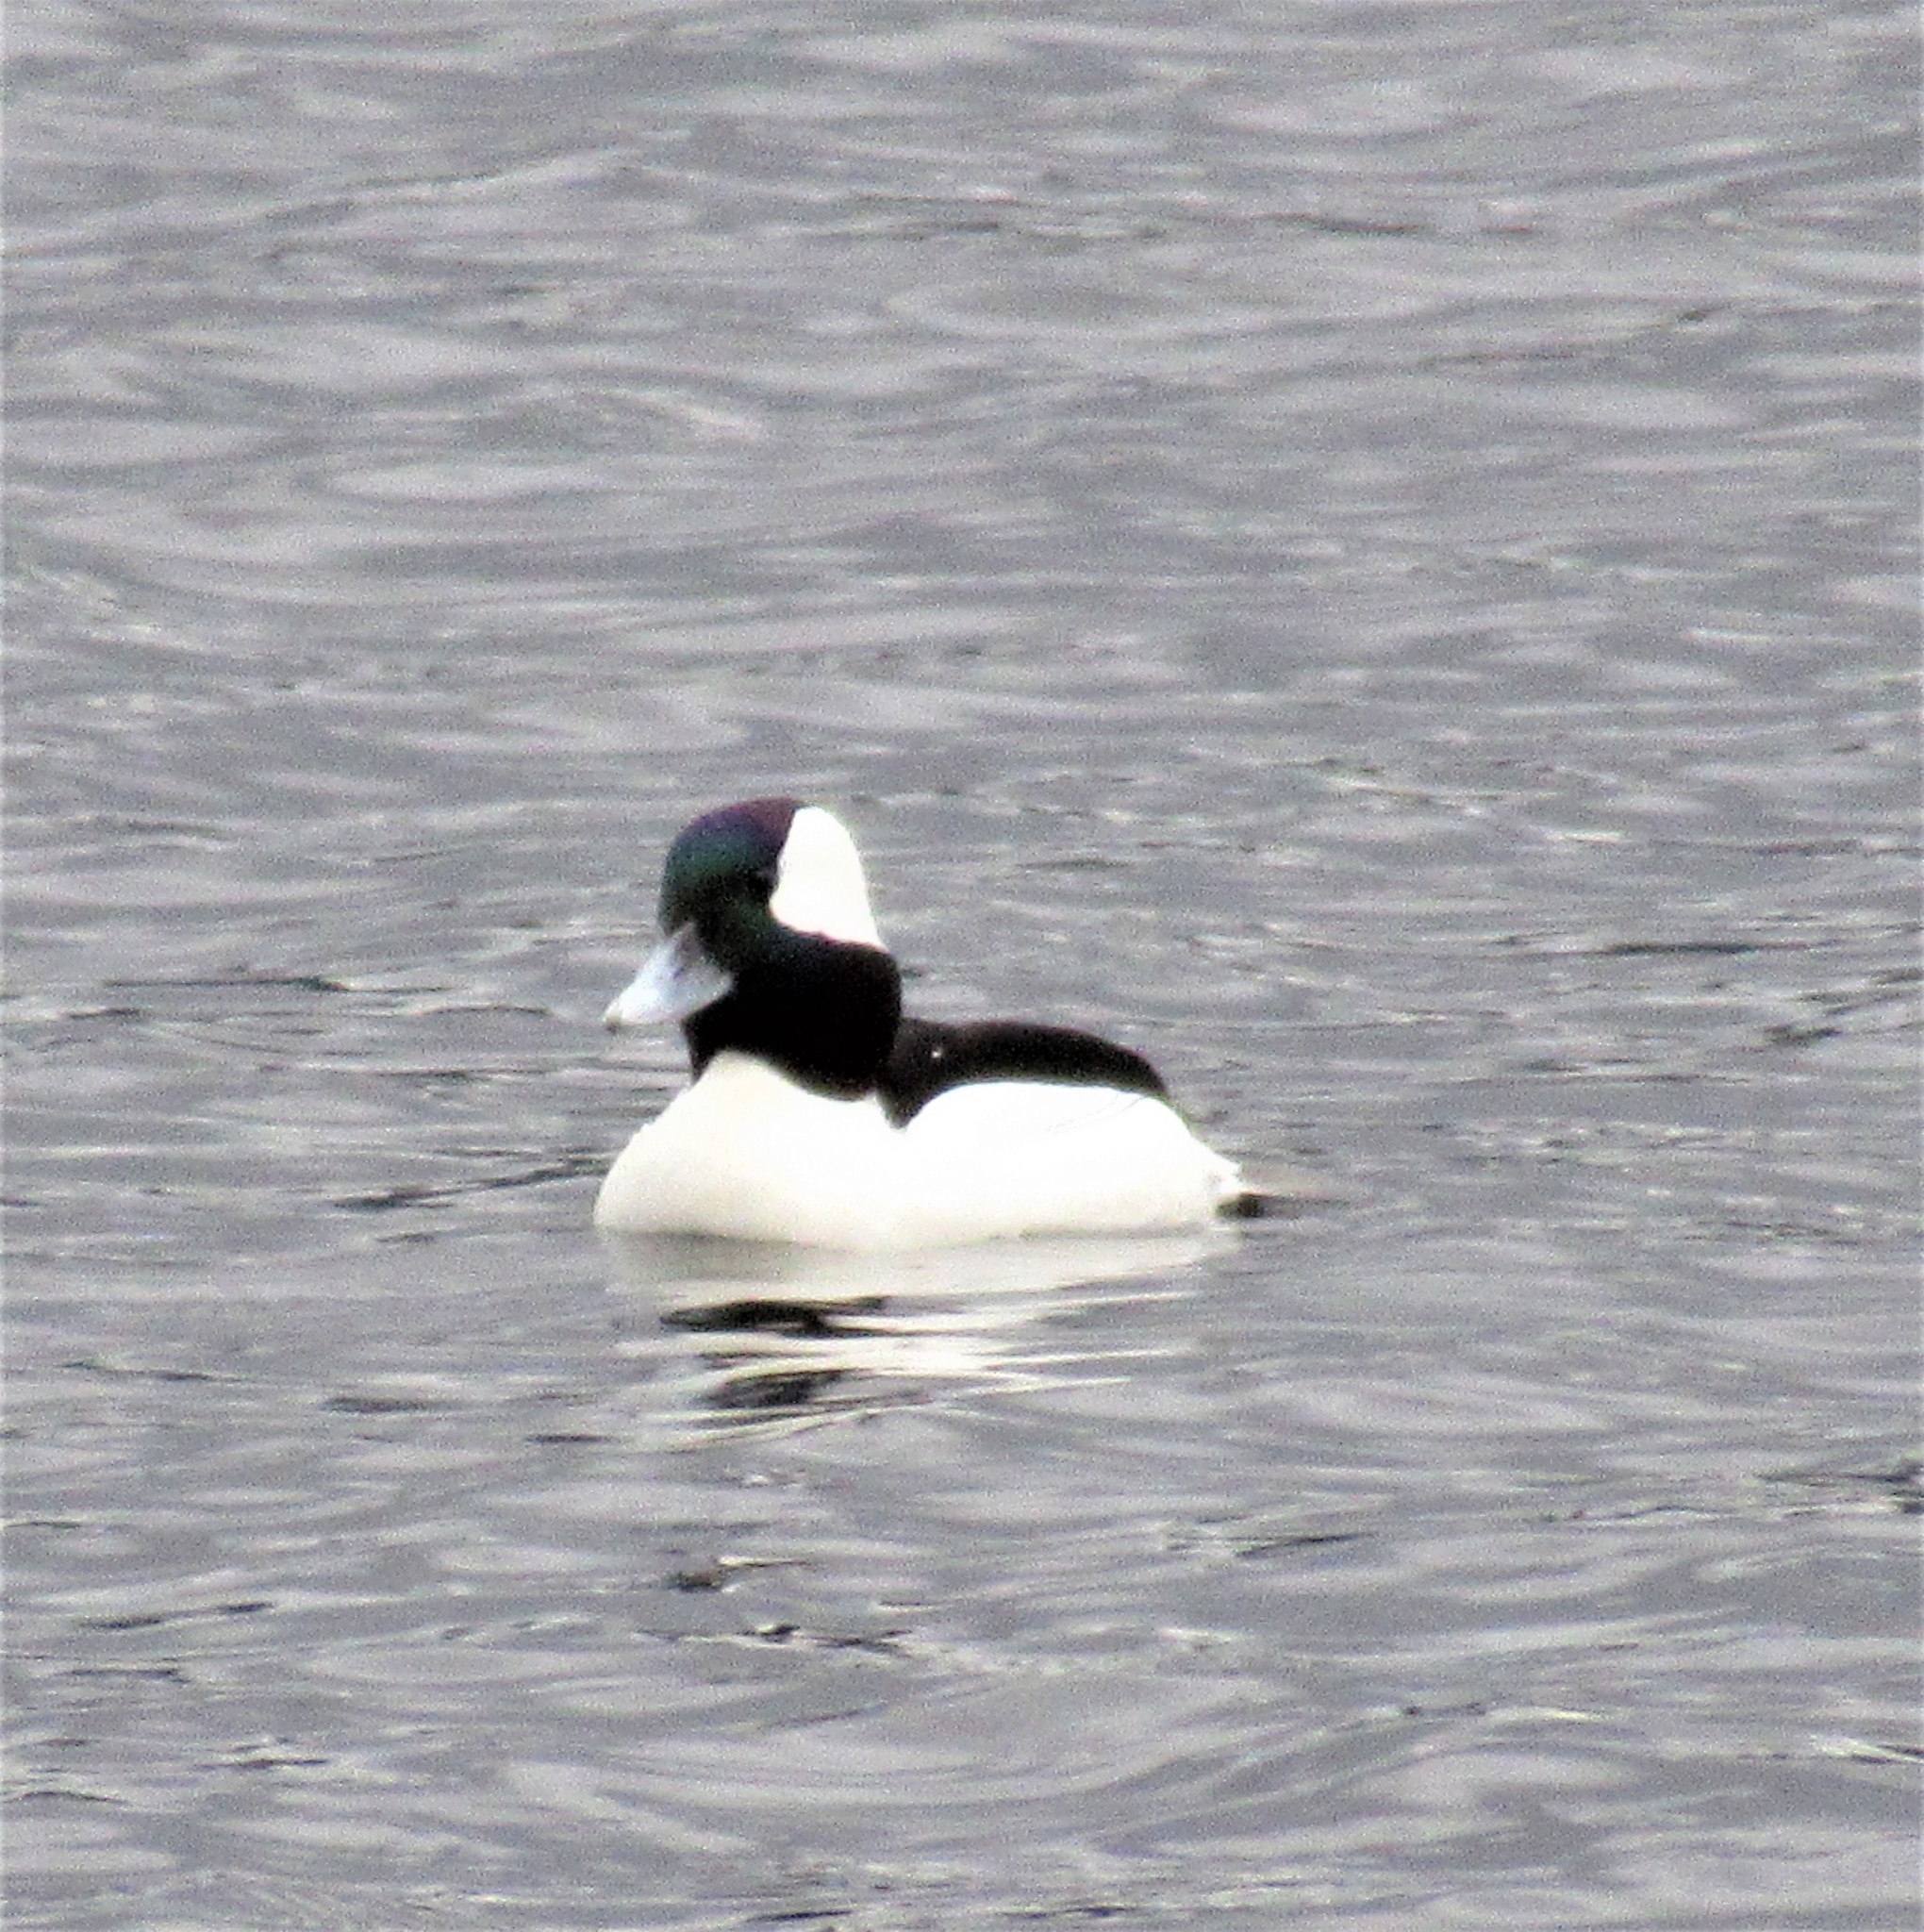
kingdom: Animalia
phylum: Chordata
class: Aves
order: Anseriformes
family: Anatidae
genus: Bucephala
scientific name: Bucephala albeola
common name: Bufflehead
